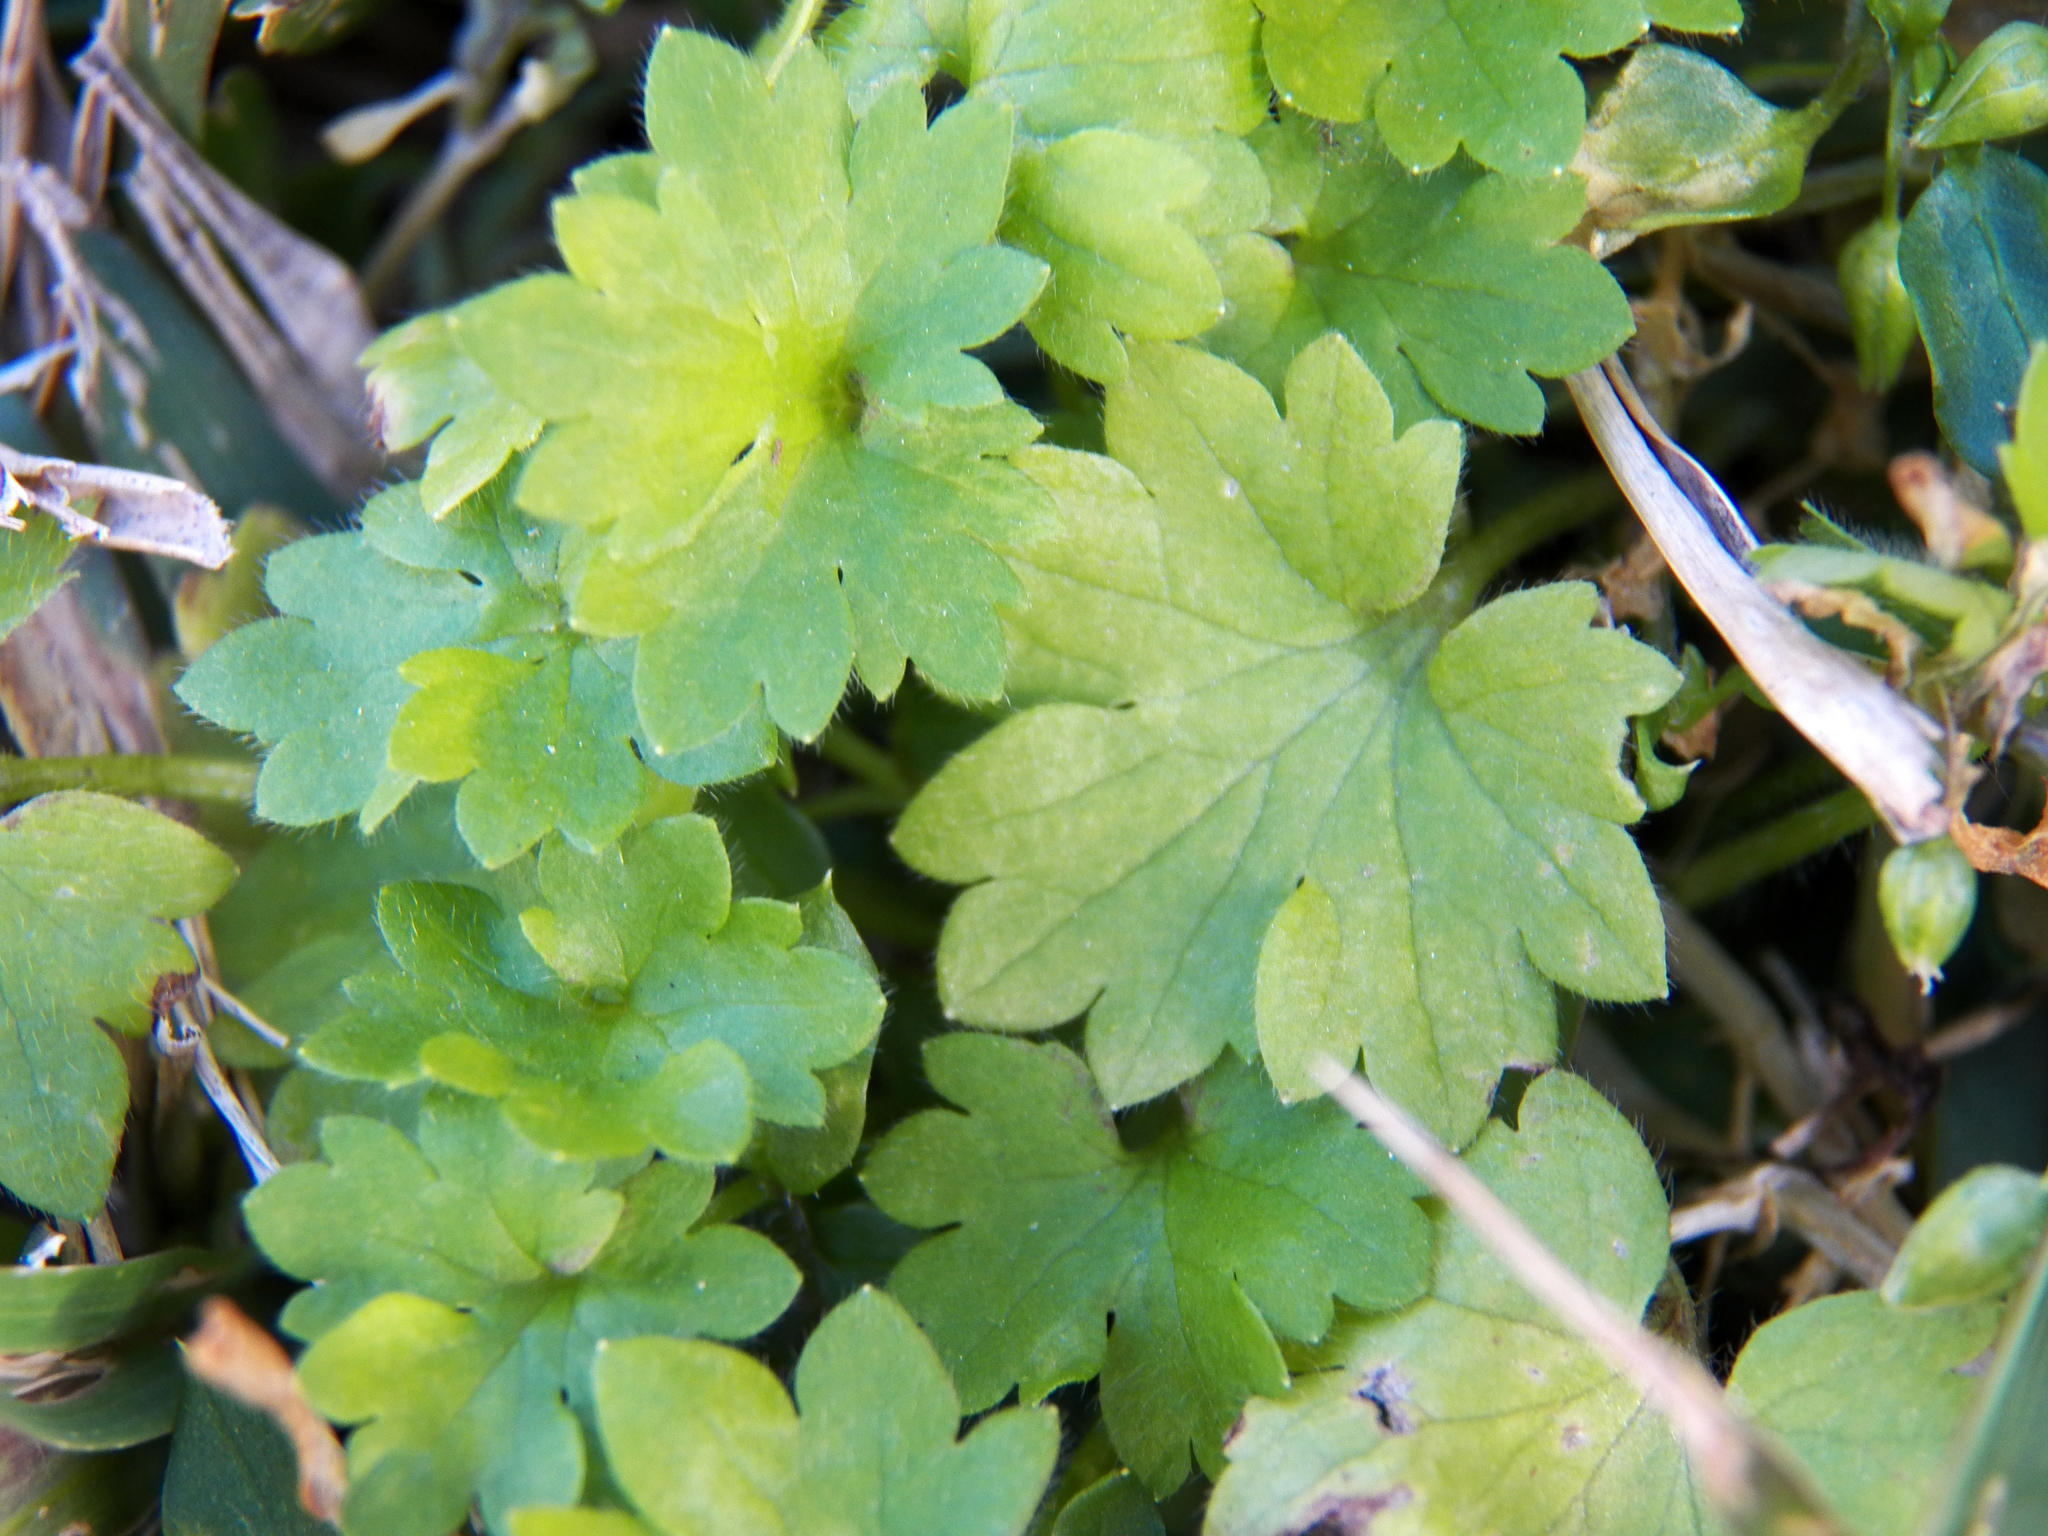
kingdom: Plantae
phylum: Tracheophyta
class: Magnoliopsida
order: Apiales
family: Apiaceae
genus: Bowlesia
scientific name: Bowlesia incana
